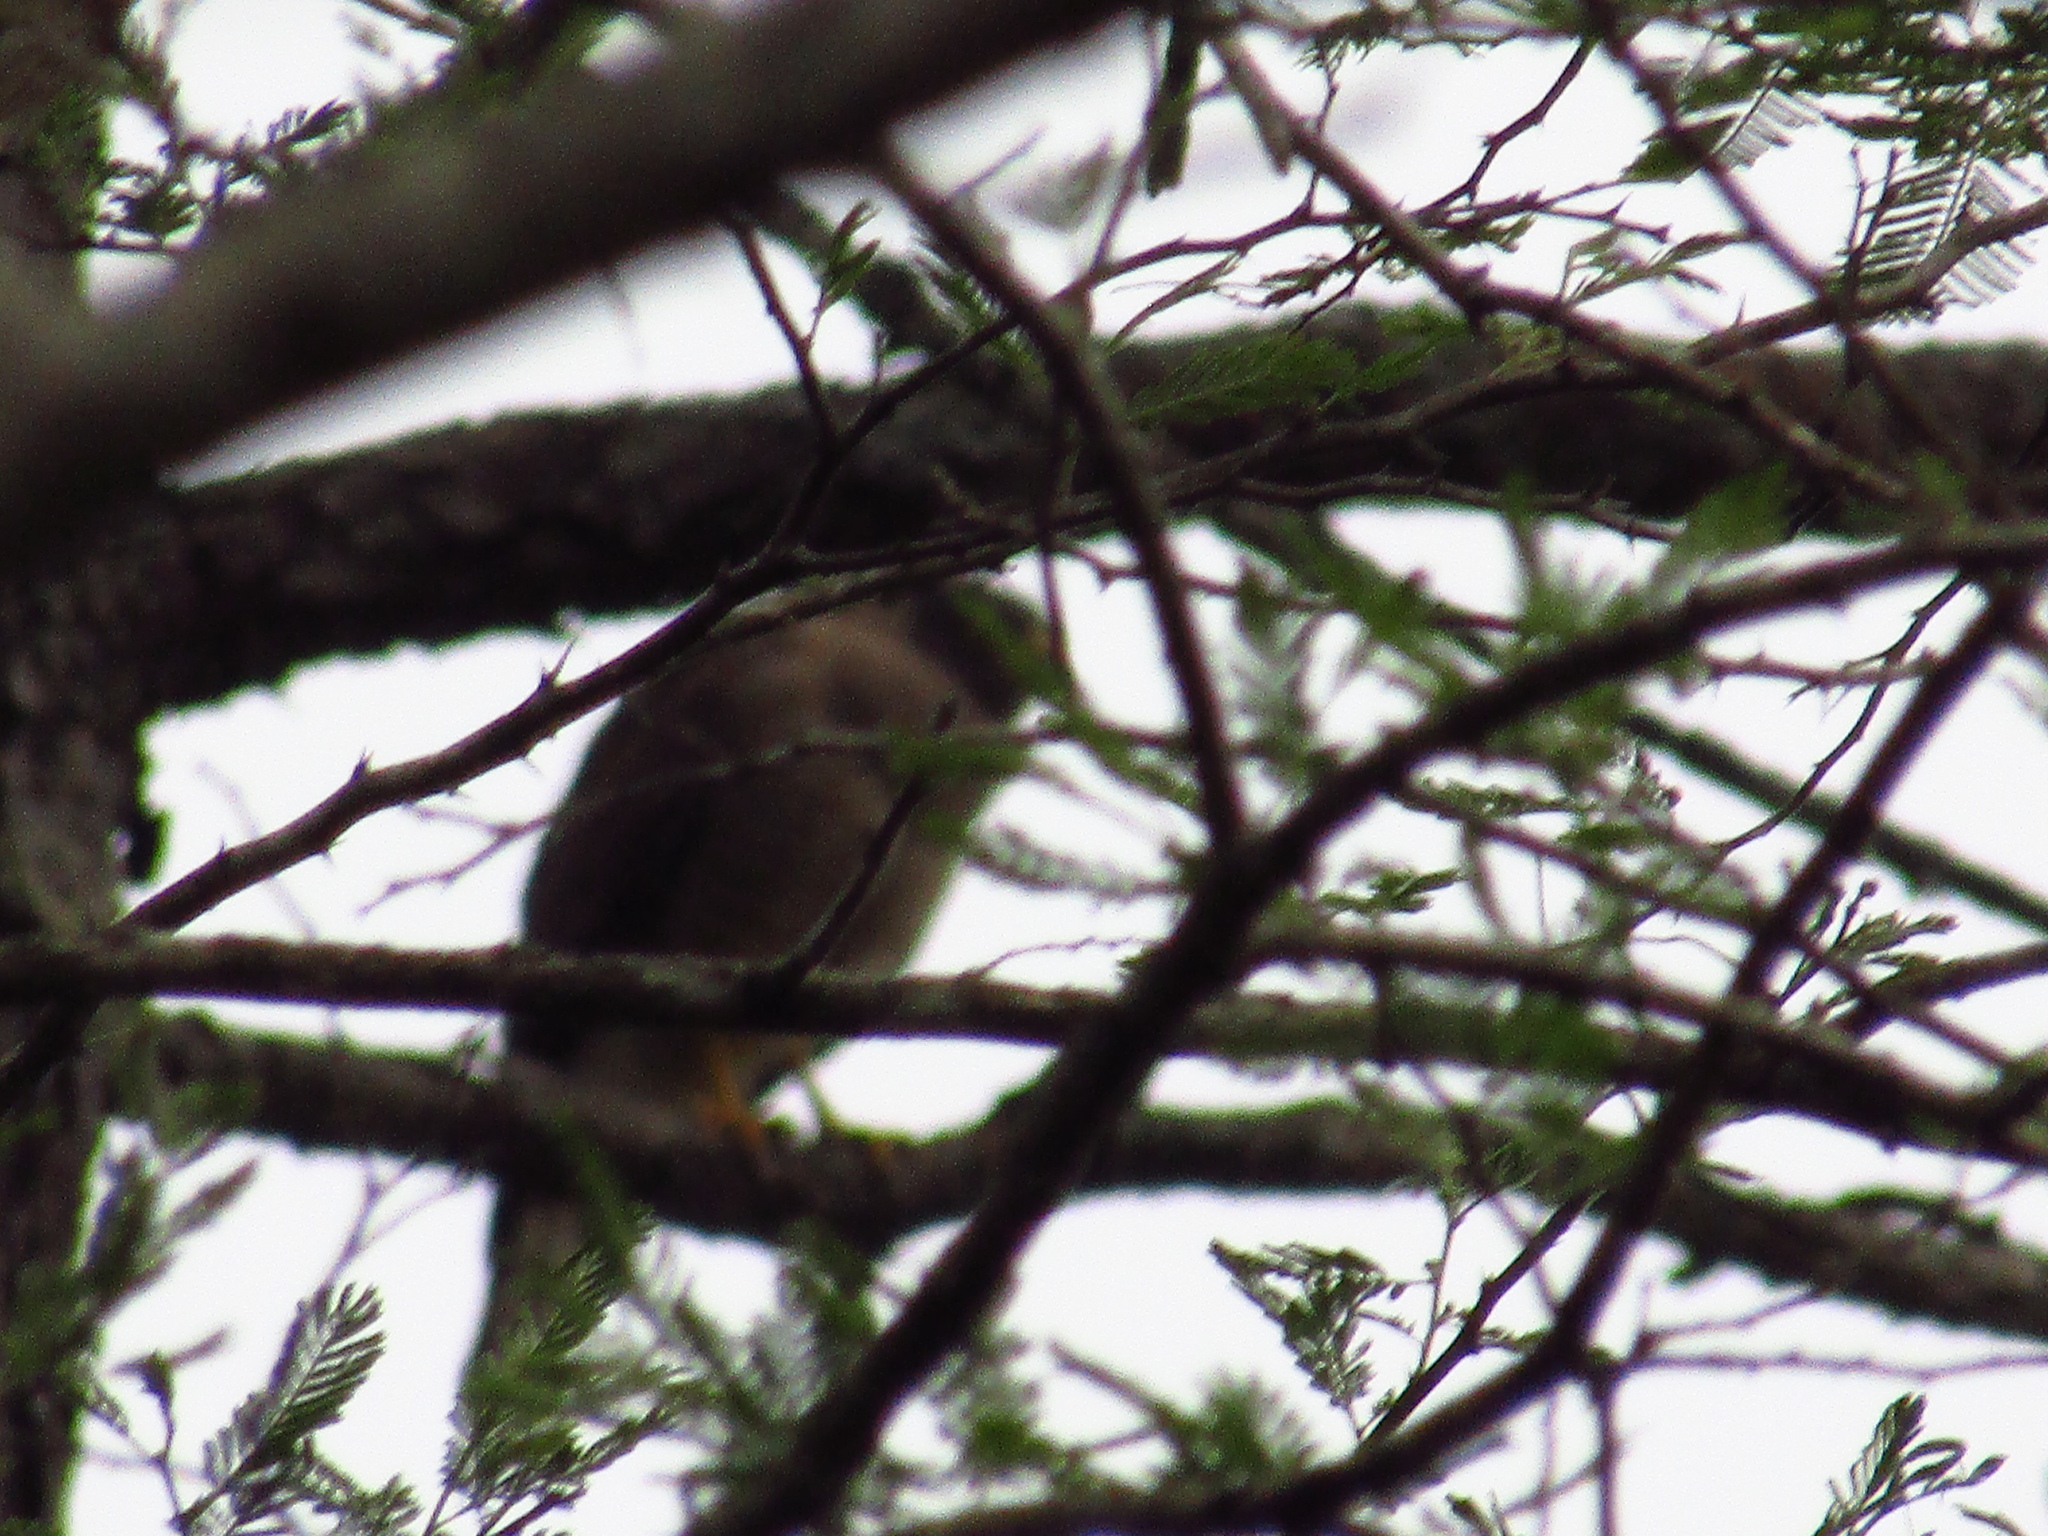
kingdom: Animalia
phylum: Chordata
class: Aves
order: Accipitriformes
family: Accipitridae
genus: Rupornis
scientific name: Rupornis magnirostris
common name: Roadside hawk
